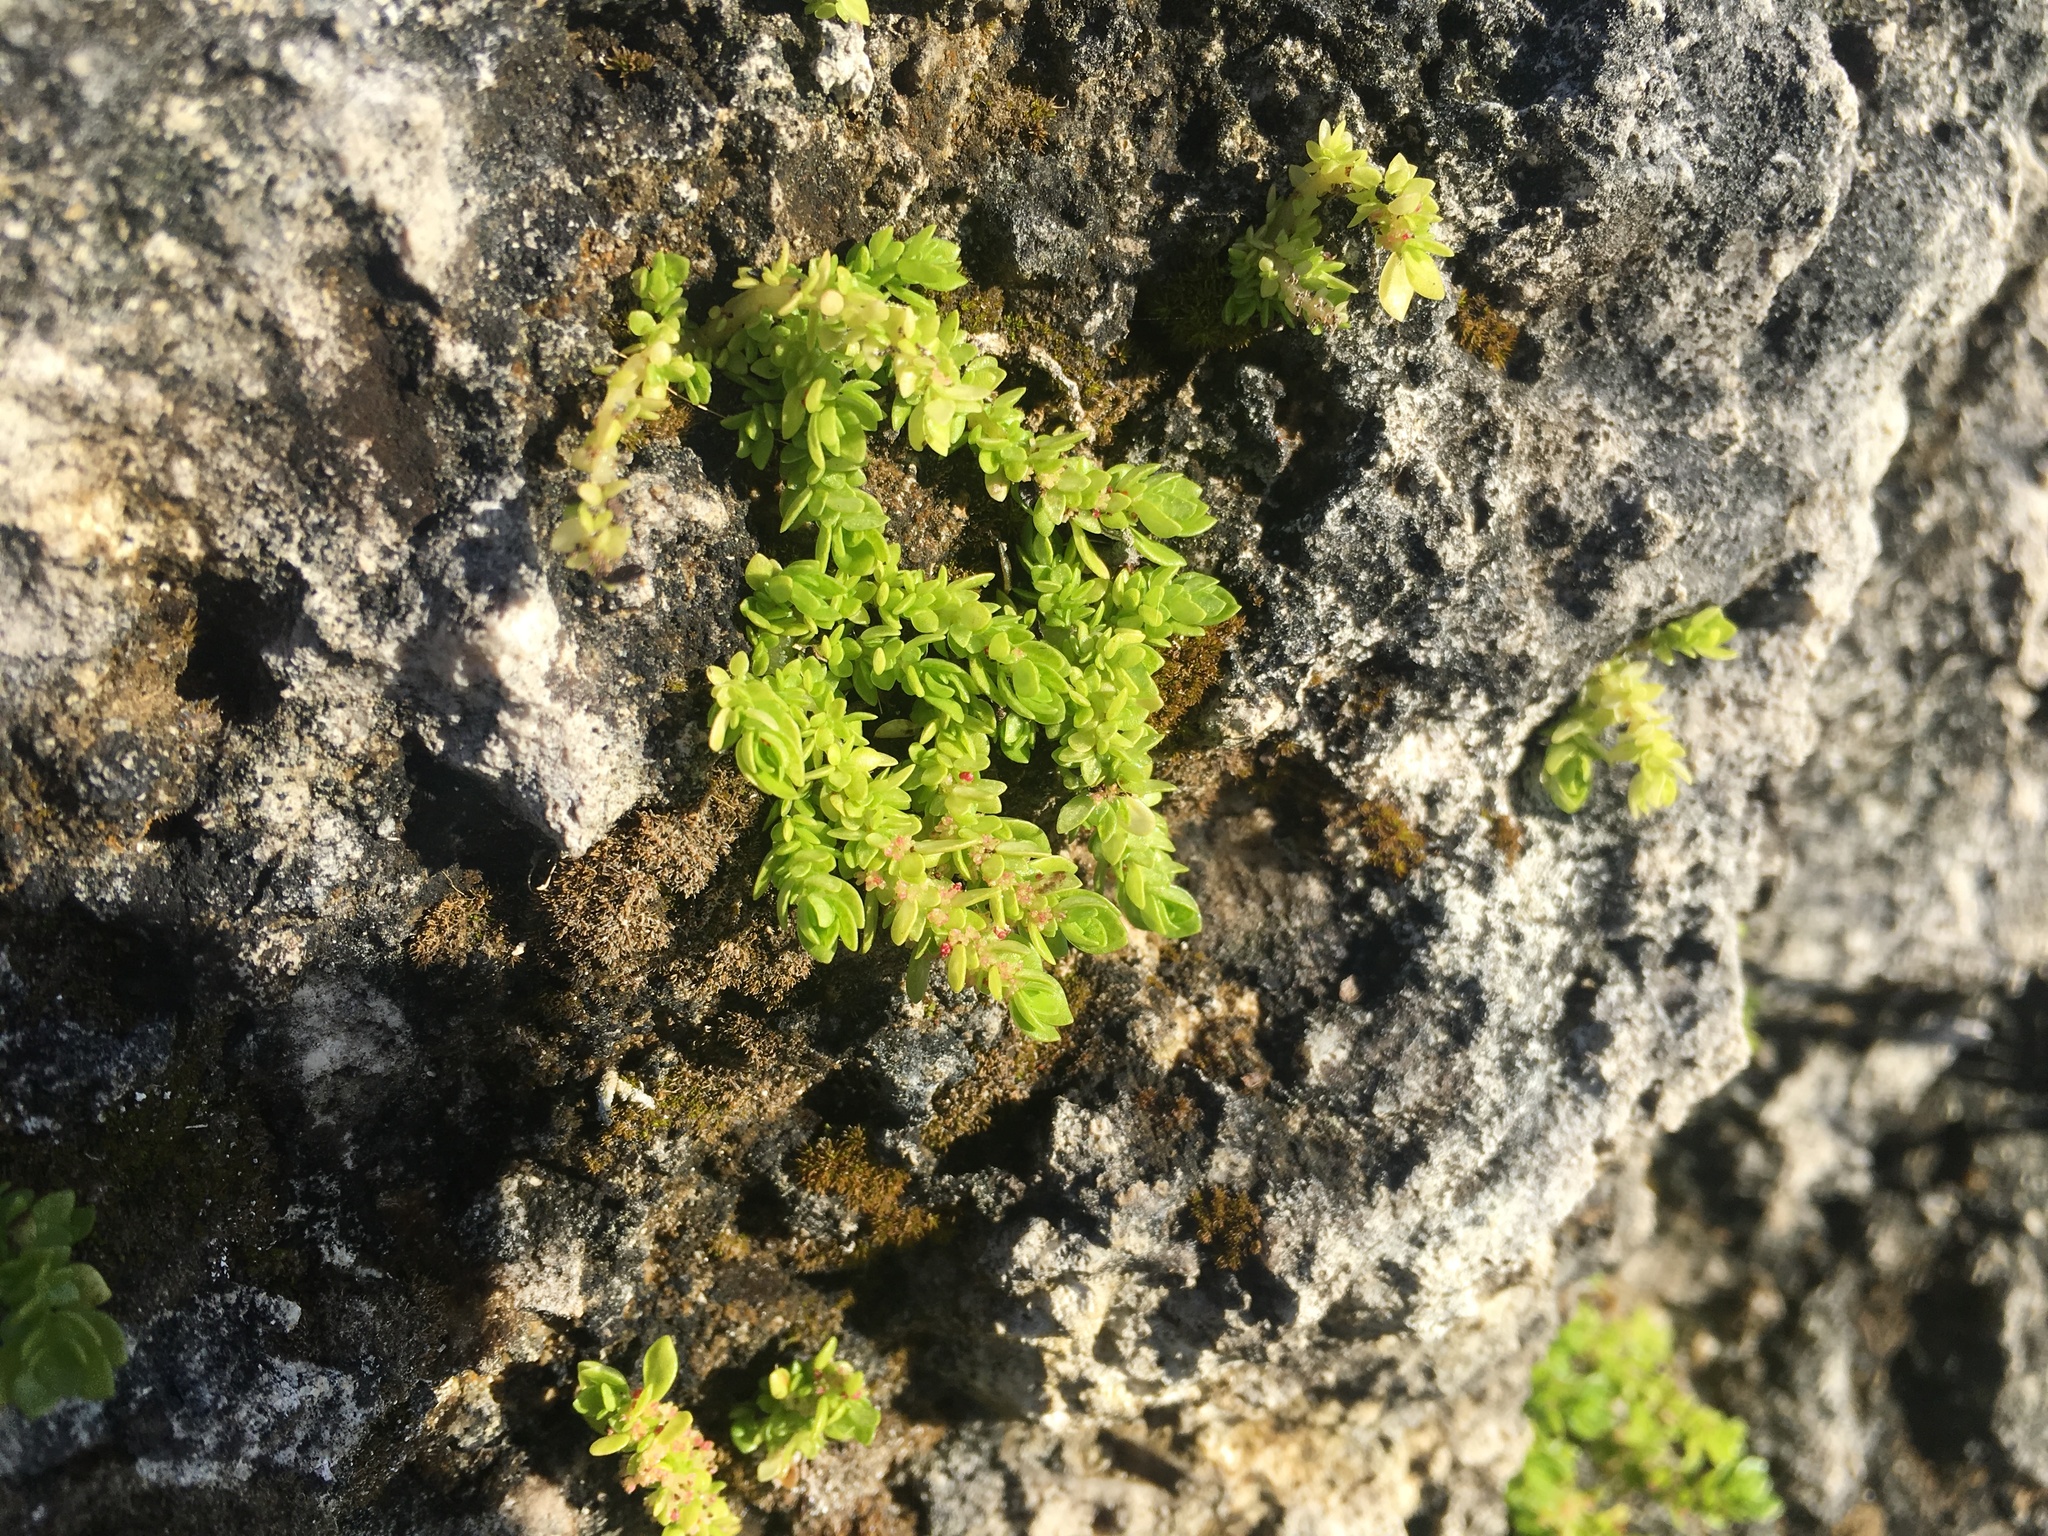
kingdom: Plantae
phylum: Tracheophyta
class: Magnoliopsida
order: Rosales
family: Urticaceae
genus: Pilea
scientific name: Pilea microphylla
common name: Artillery-plant
